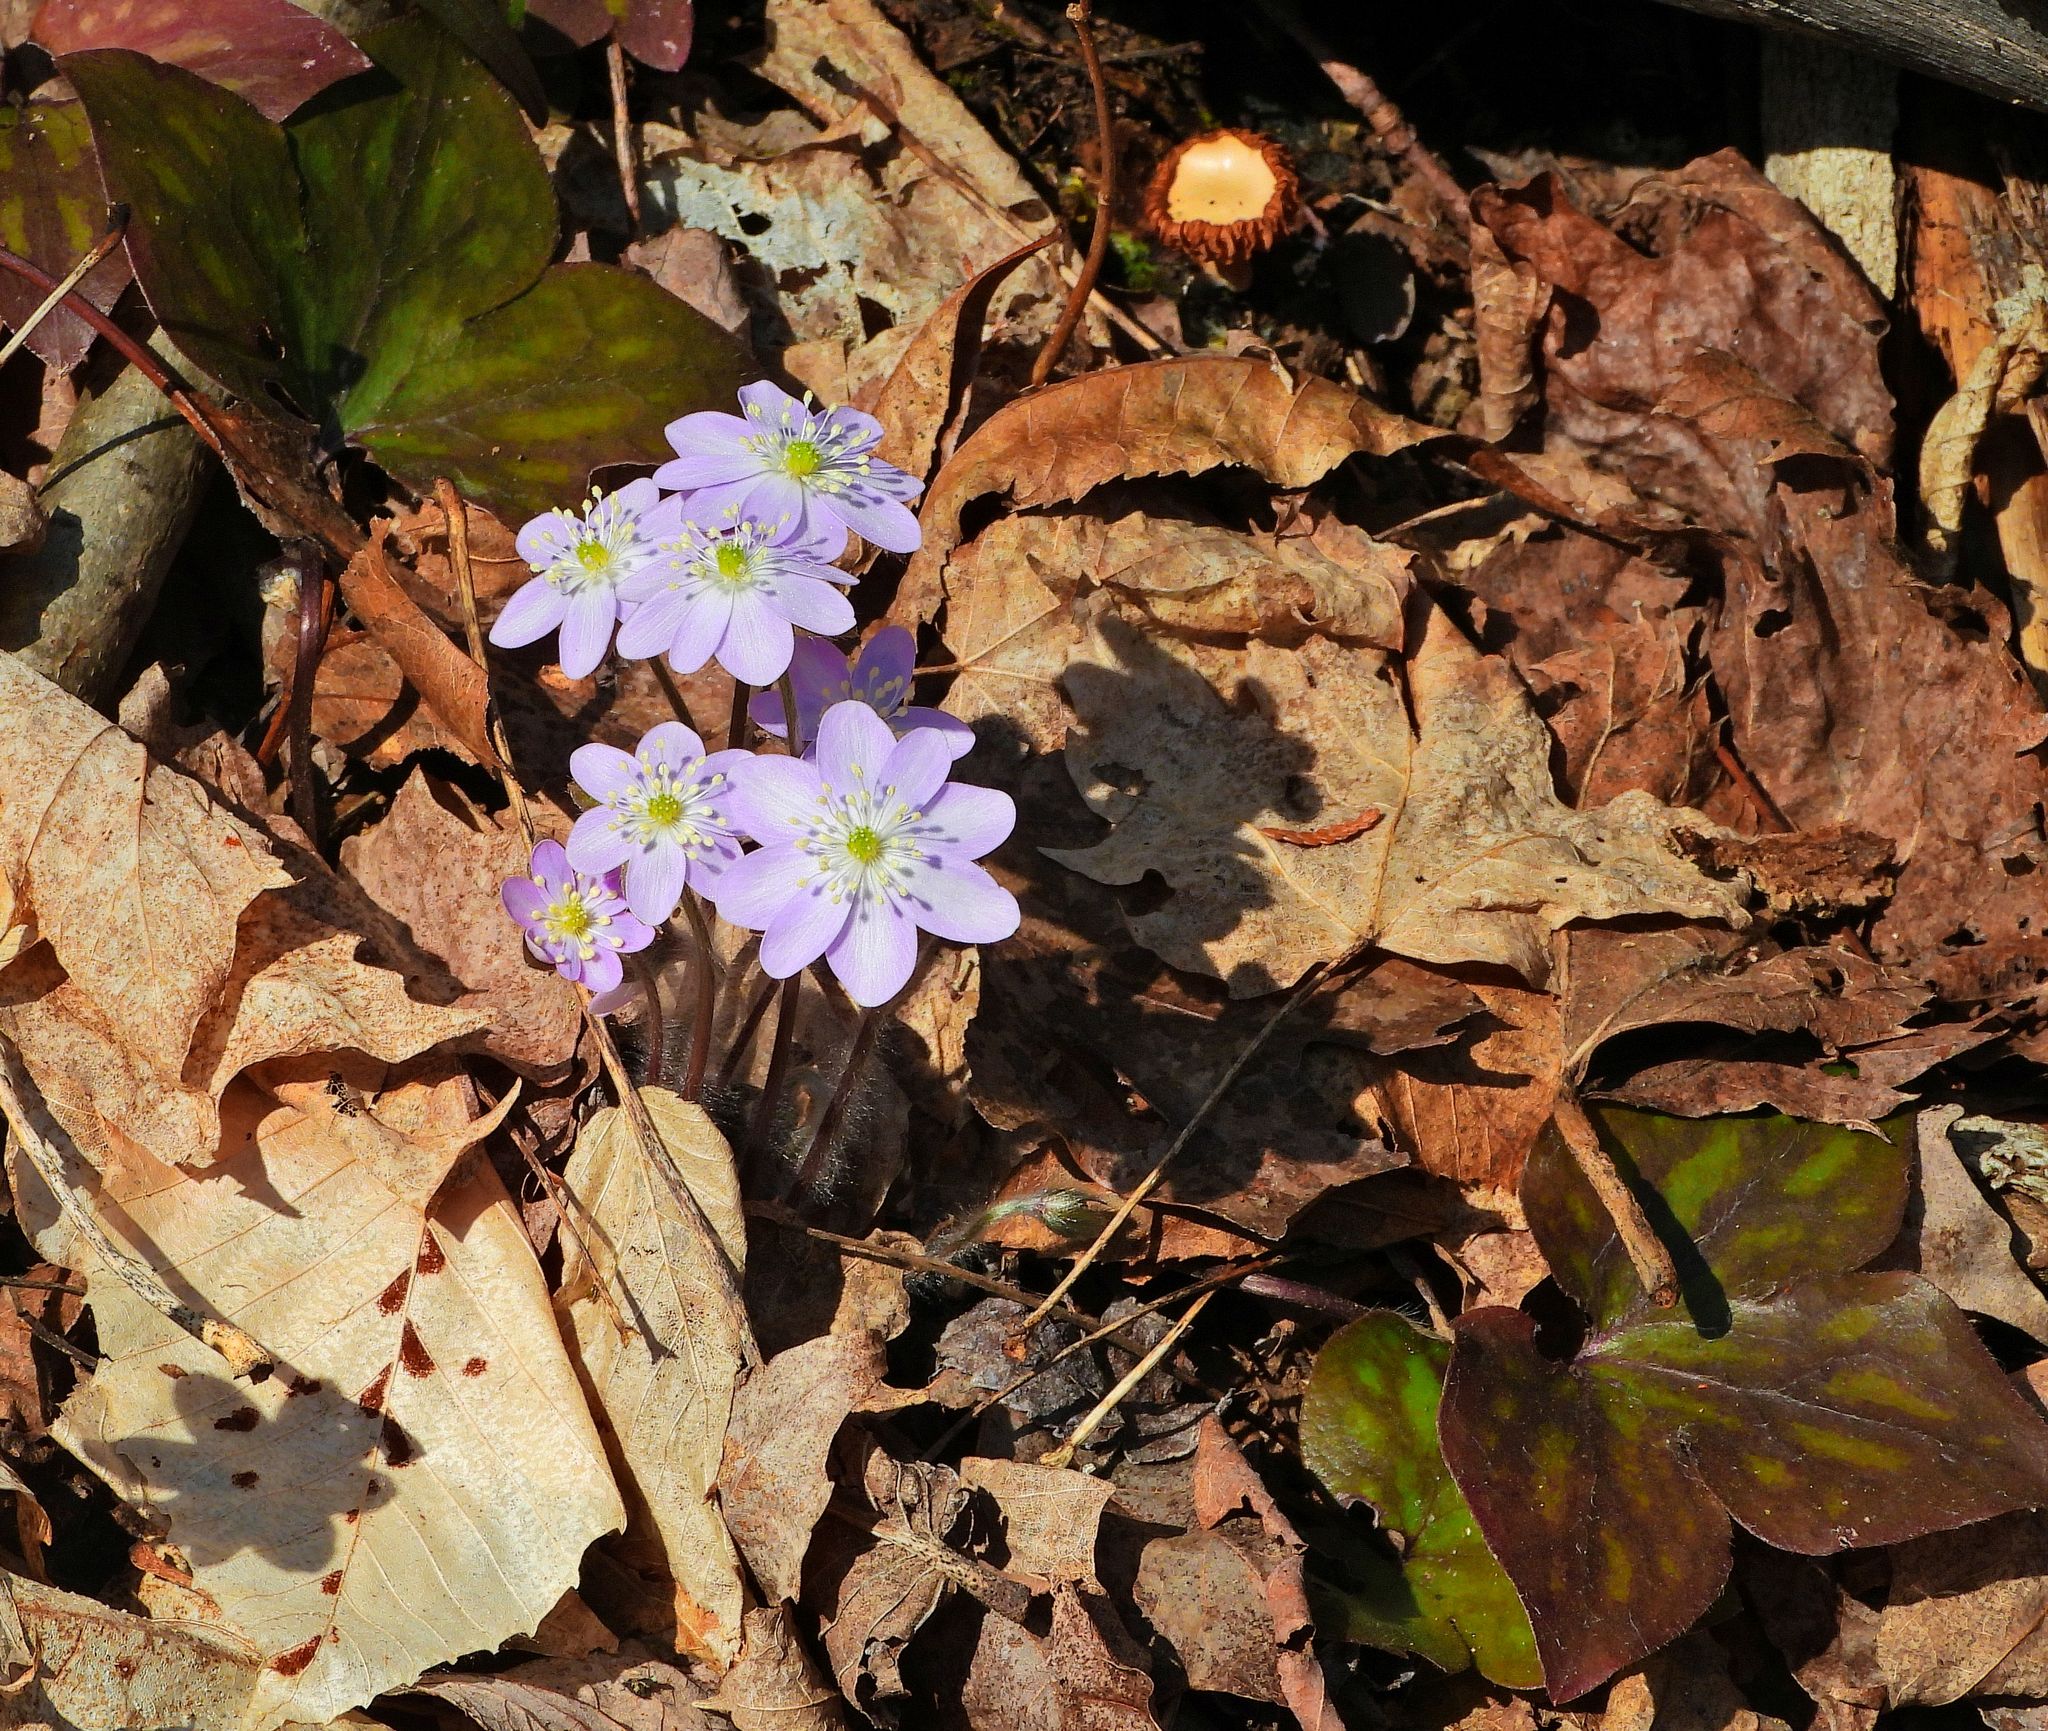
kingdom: Plantae
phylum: Tracheophyta
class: Magnoliopsida
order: Ranunculales
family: Ranunculaceae
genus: Hepatica
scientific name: Hepatica acutiloba
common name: Sharp-lobed hepatica
